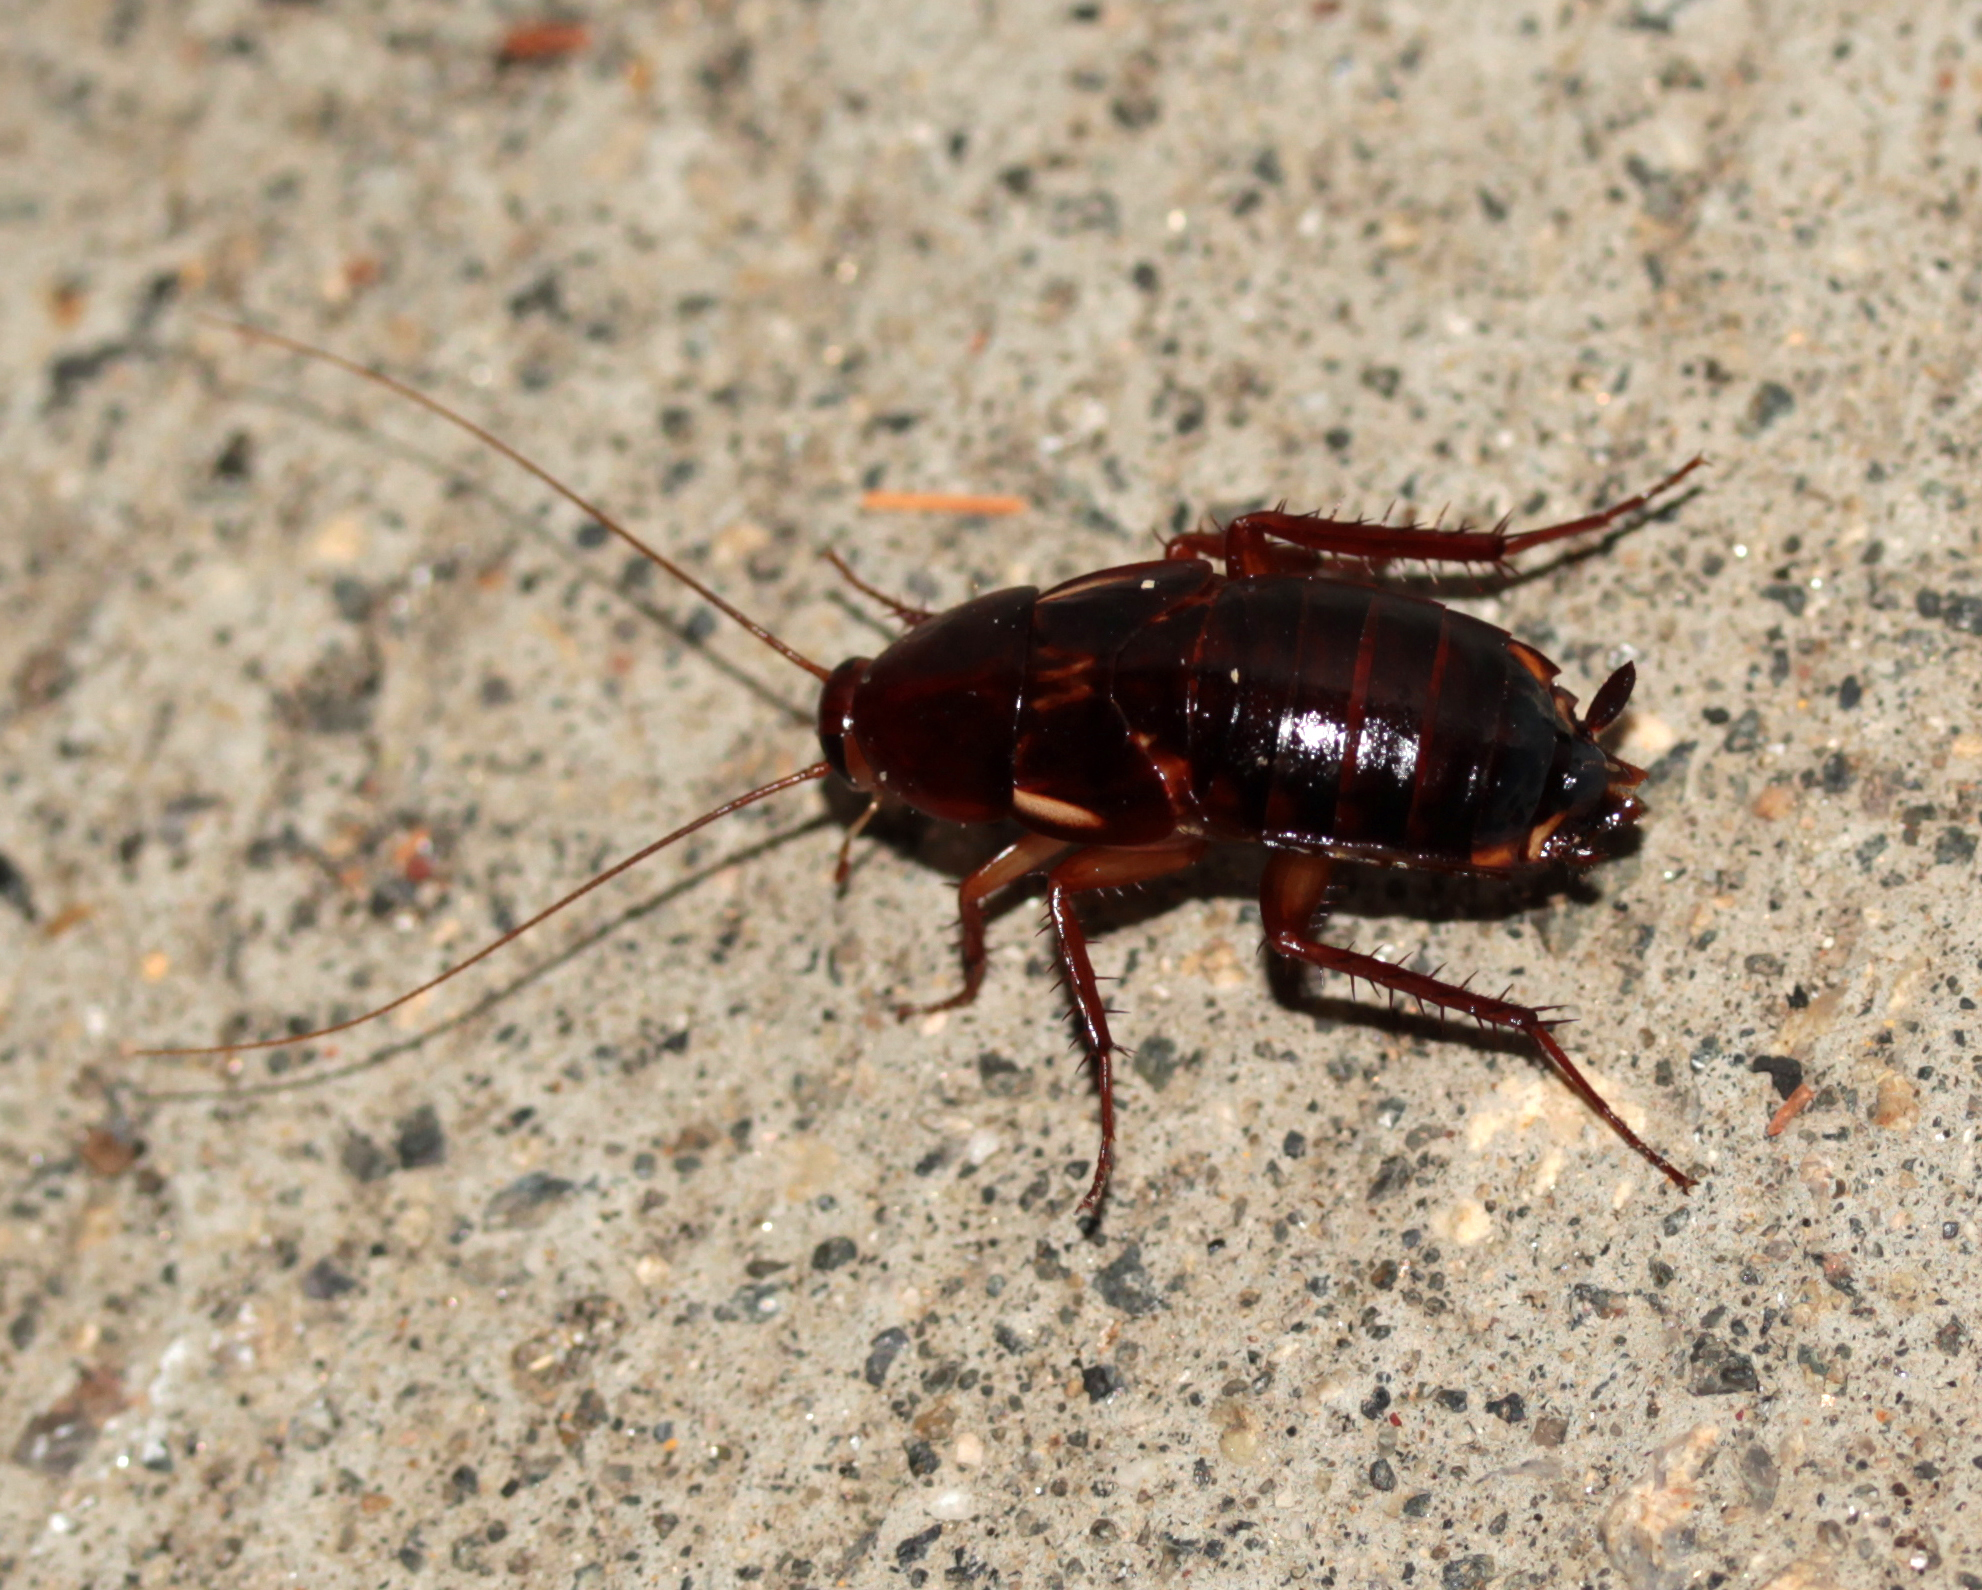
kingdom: Animalia
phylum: Arthropoda
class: Insecta
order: Blattodea
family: Blattidae
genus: Periplaneta
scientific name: Periplaneta lateralis
